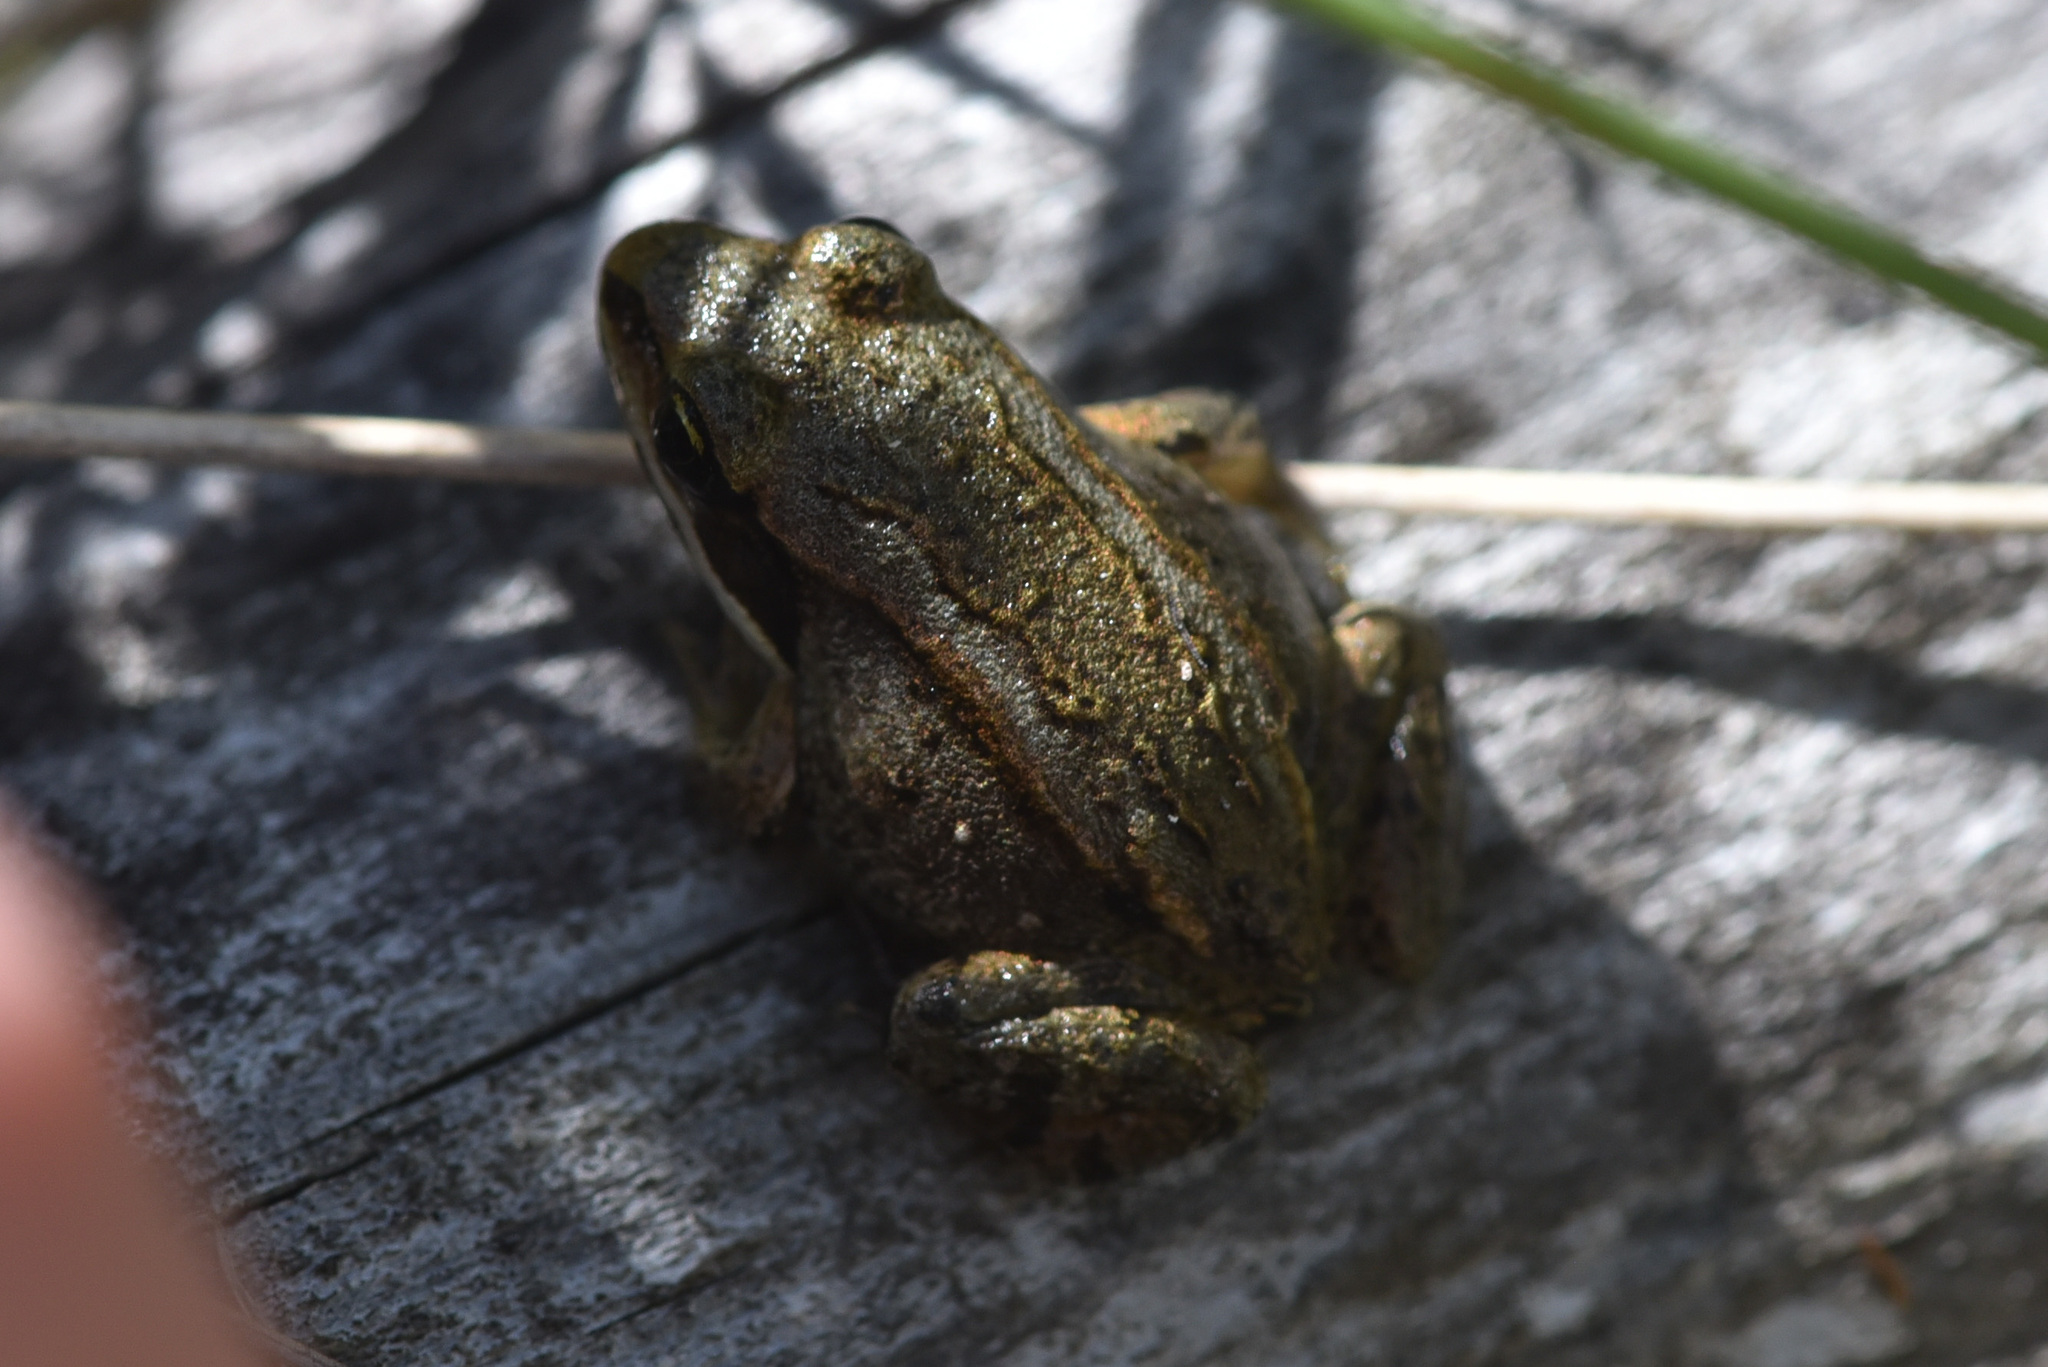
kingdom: Animalia
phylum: Chordata
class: Amphibia
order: Anura
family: Ranidae
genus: Lithobates
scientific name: Lithobates sylvaticus
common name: Wood frog
